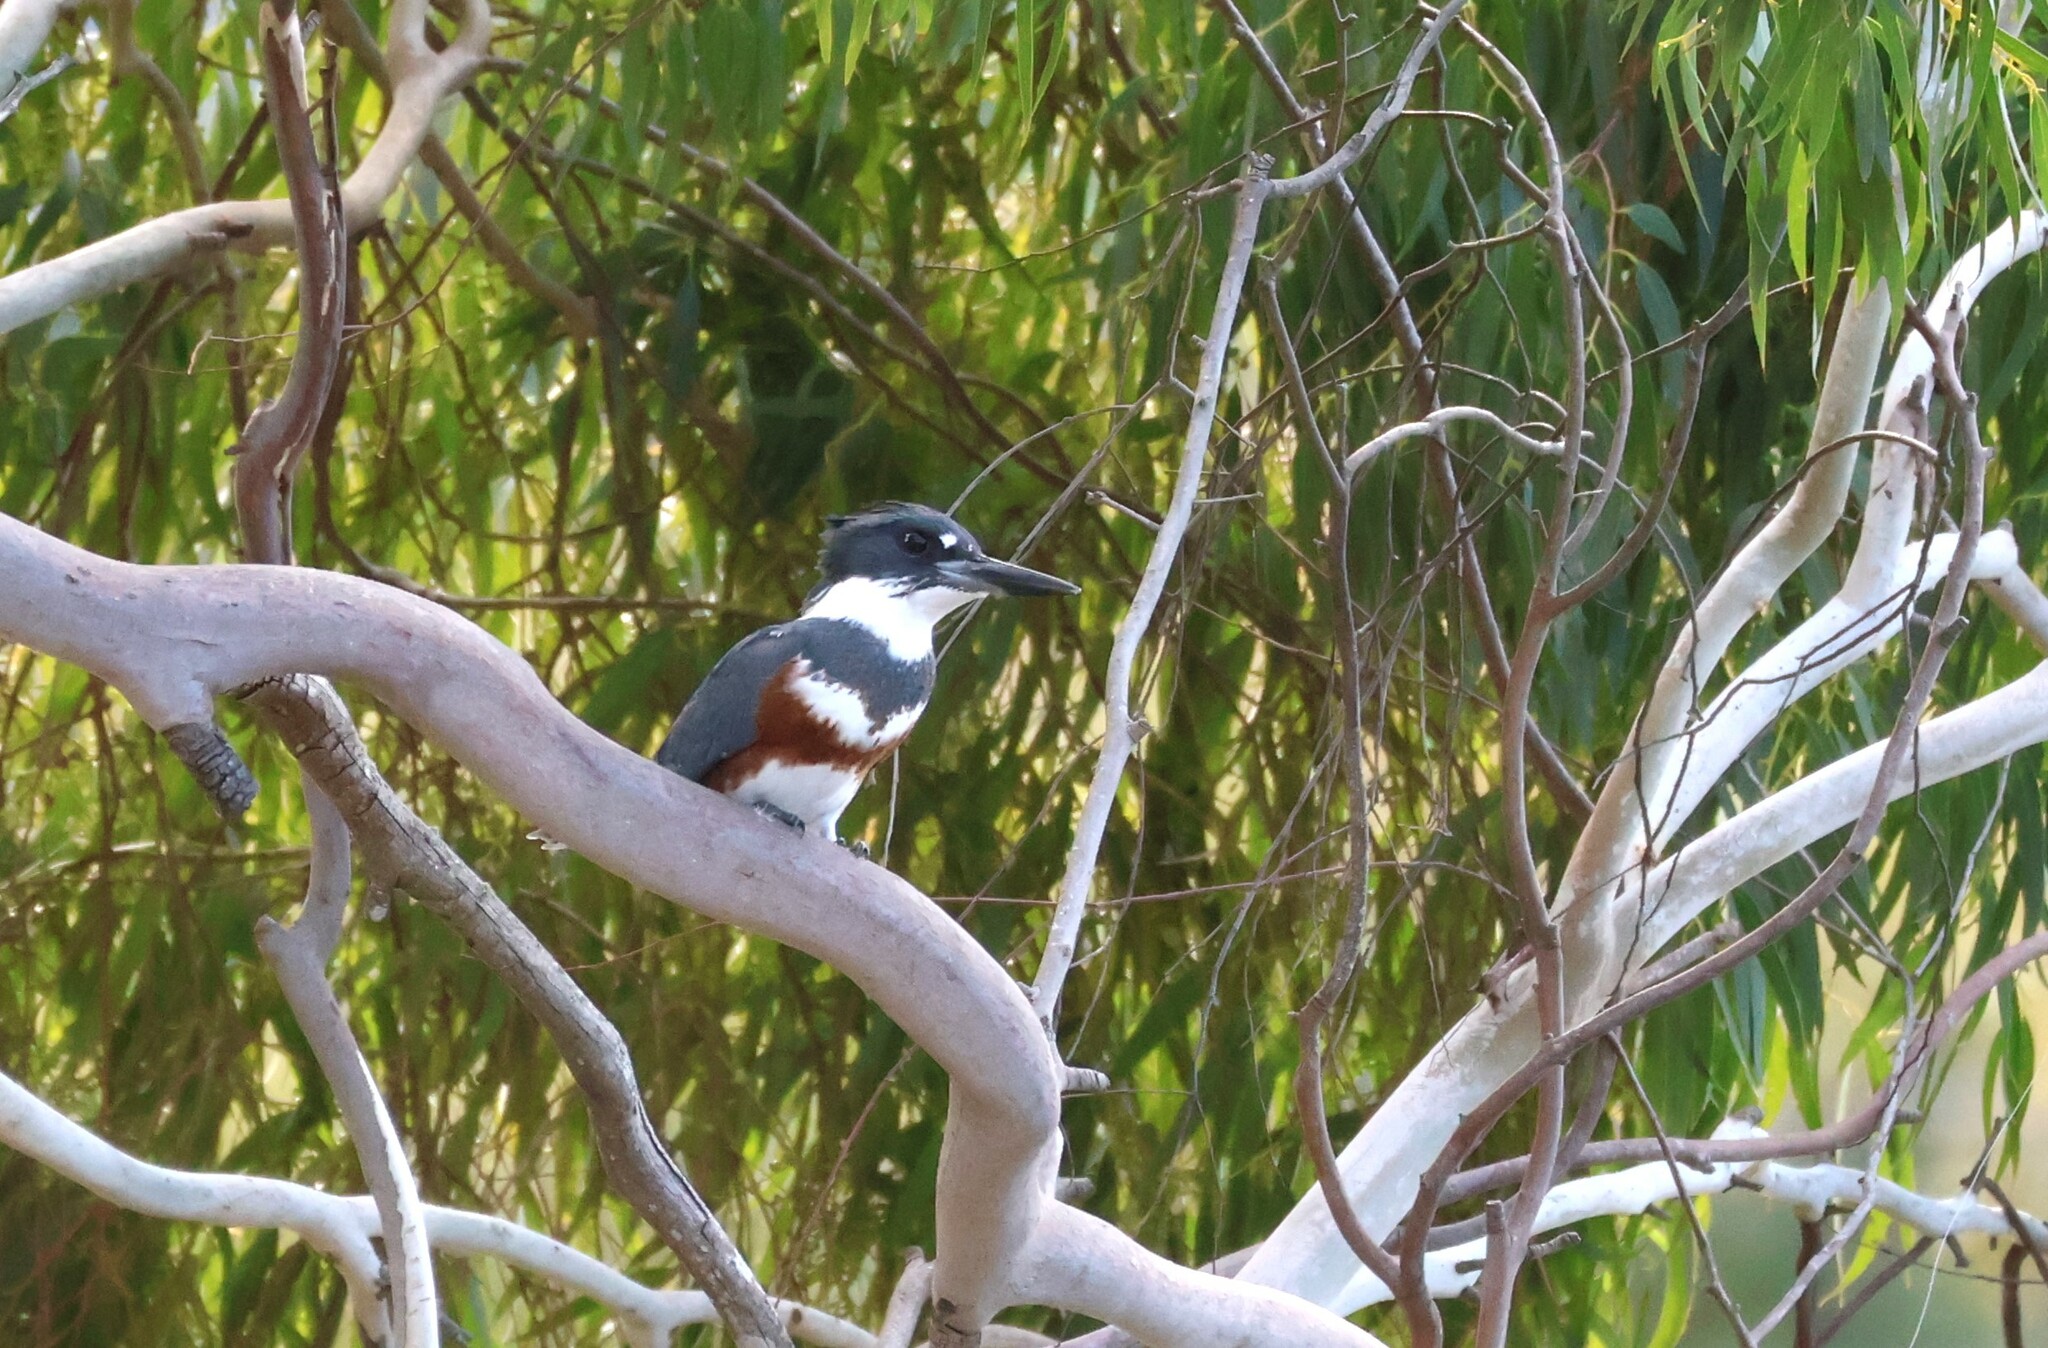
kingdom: Animalia
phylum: Chordata
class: Aves
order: Coraciiformes
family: Alcedinidae
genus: Megaceryle
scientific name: Megaceryle alcyon
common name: Belted kingfisher
